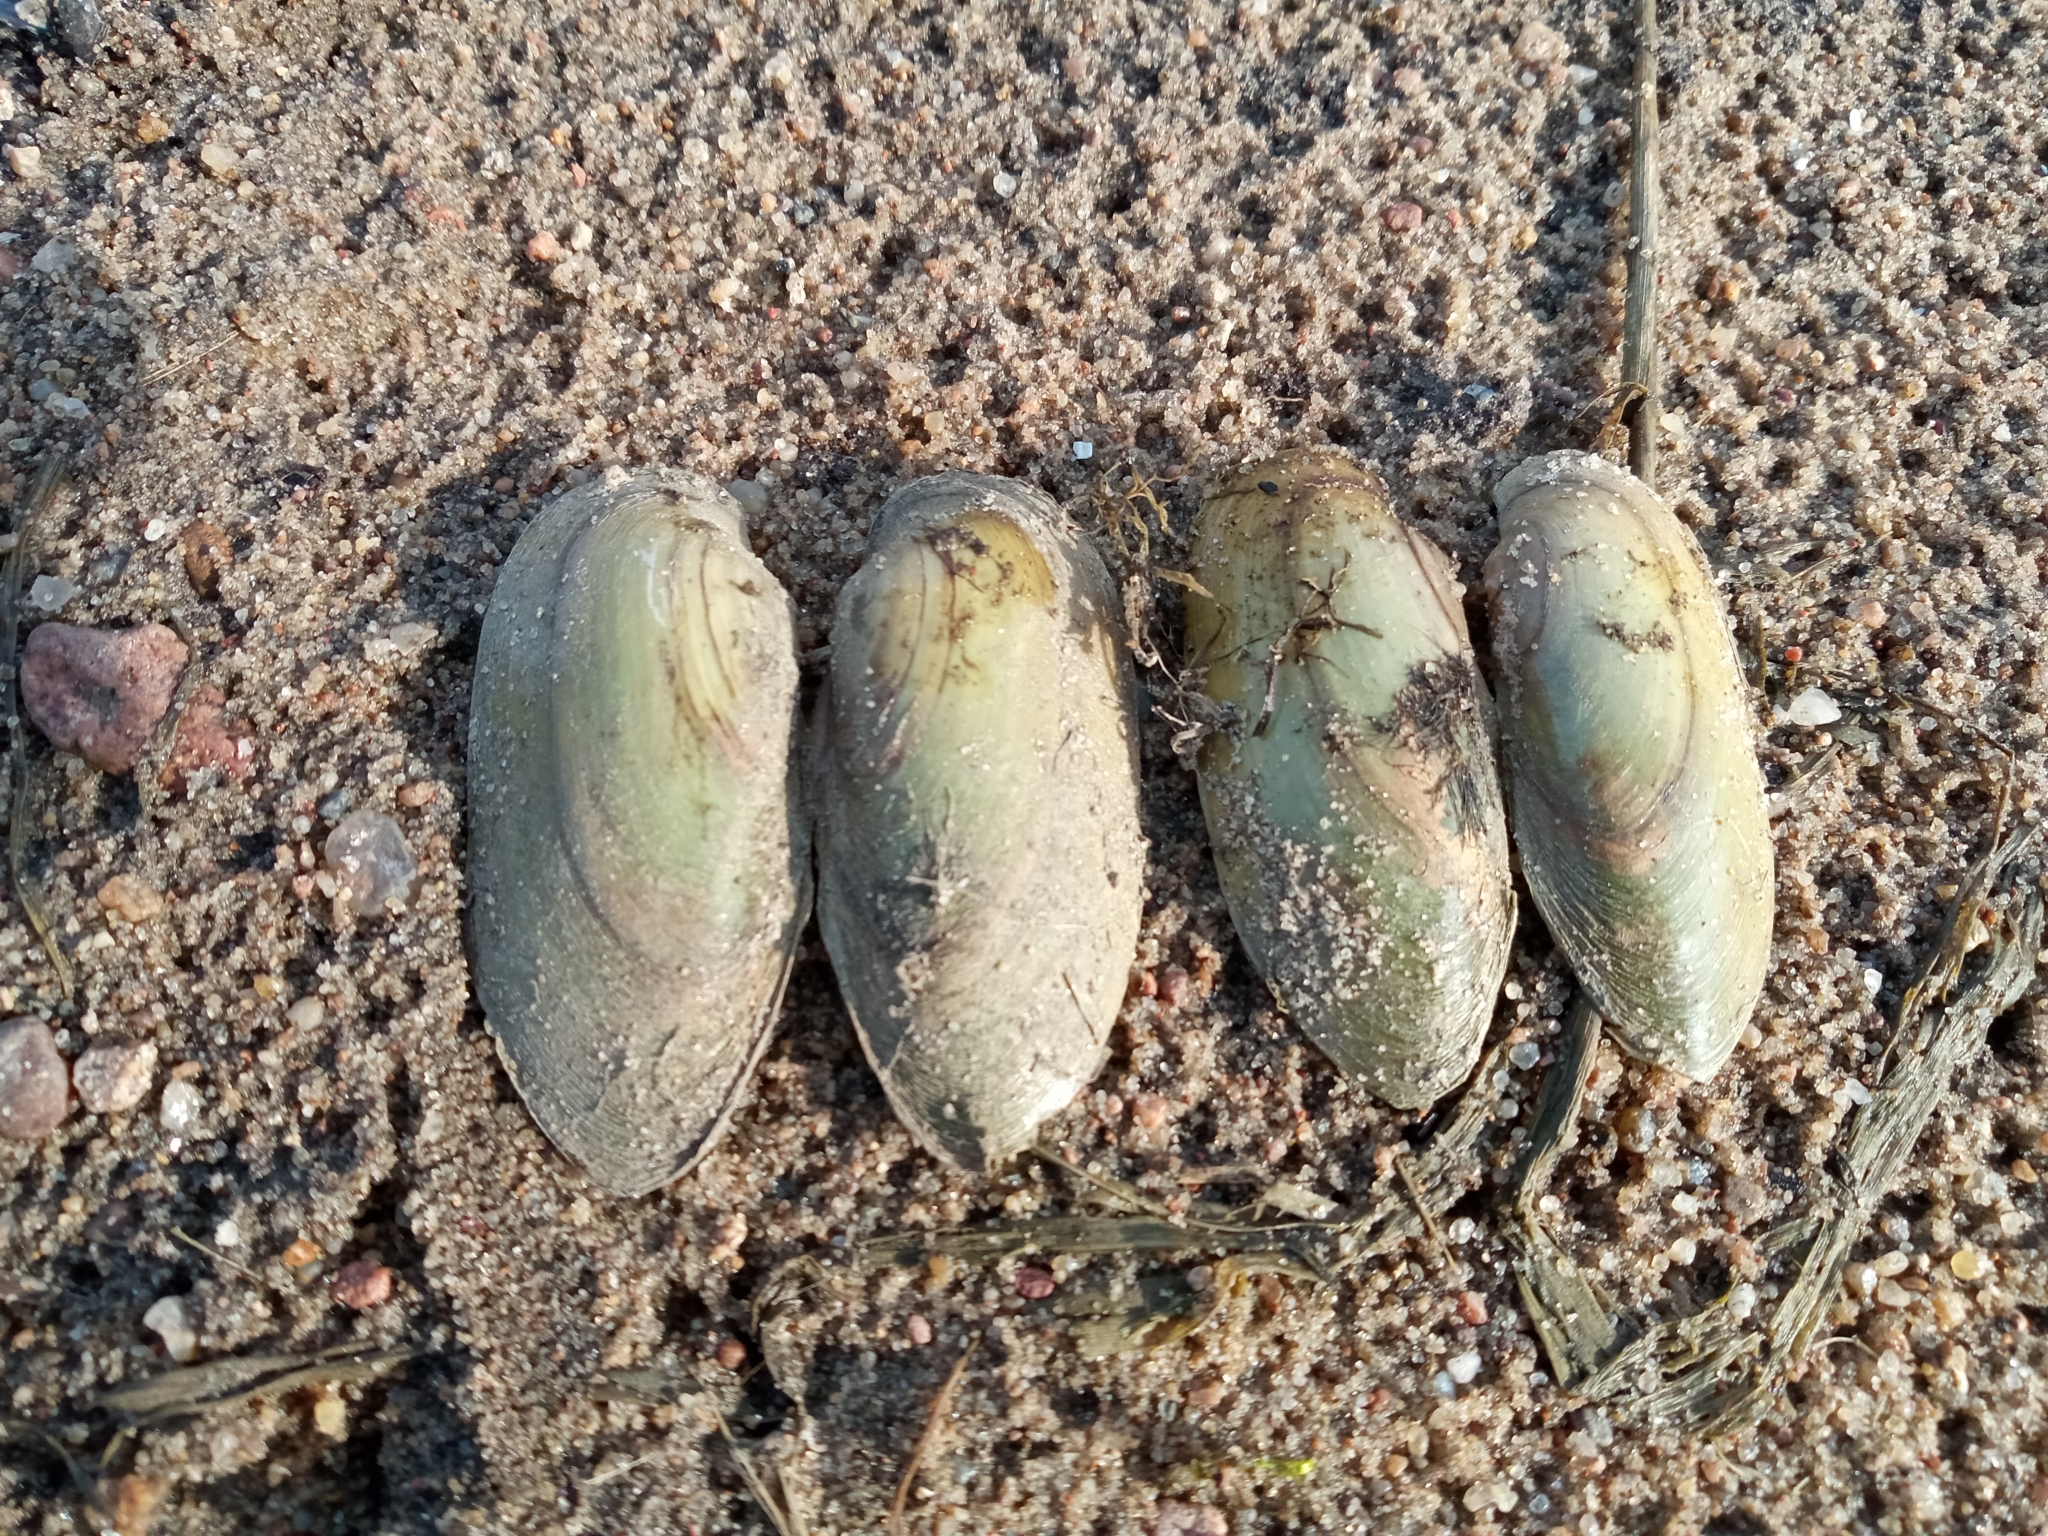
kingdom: Animalia
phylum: Mollusca
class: Bivalvia
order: Unionida
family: Unionidae
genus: Unio
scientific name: Unio pictorum
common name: Painter's mussel
